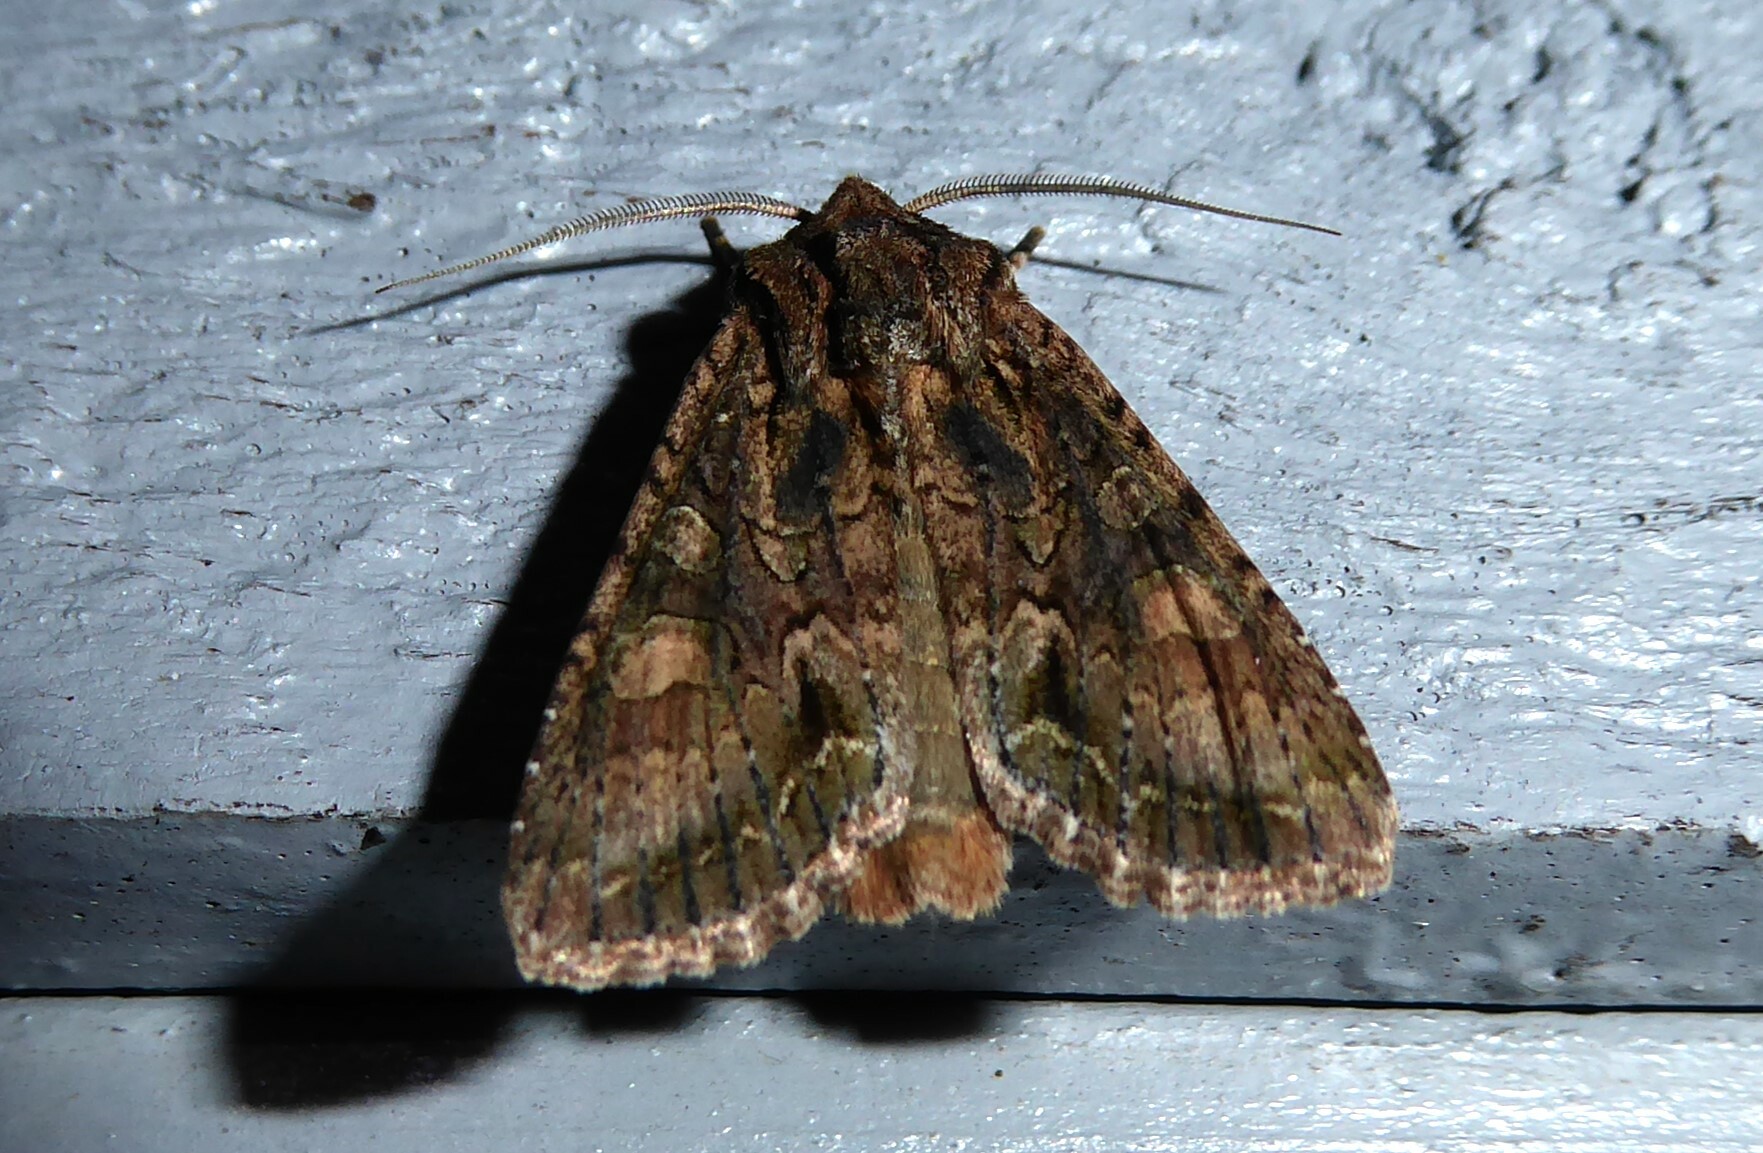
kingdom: Animalia
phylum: Arthropoda
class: Insecta
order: Lepidoptera
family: Noctuidae
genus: Ichneutica
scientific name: Ichneutica mutans
